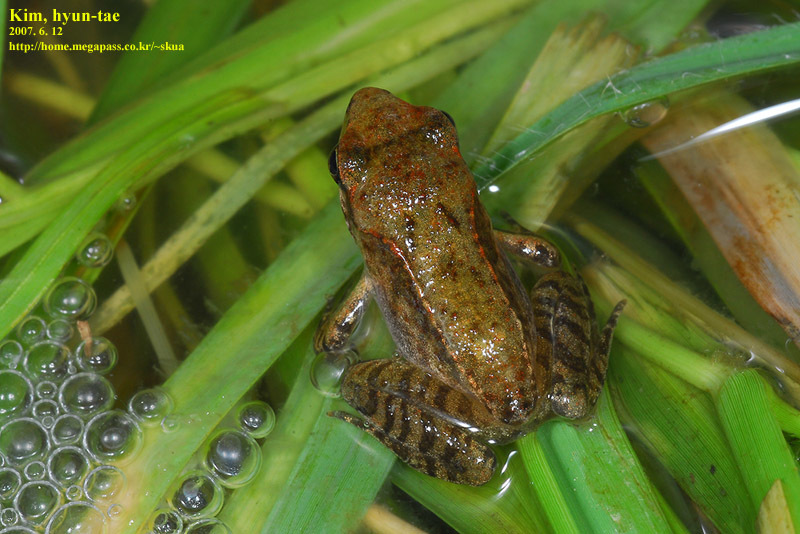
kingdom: Animalia
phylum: Chordata
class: Amphibia
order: Anura
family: Ranidae
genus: Rana
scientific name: Rana uenoi
